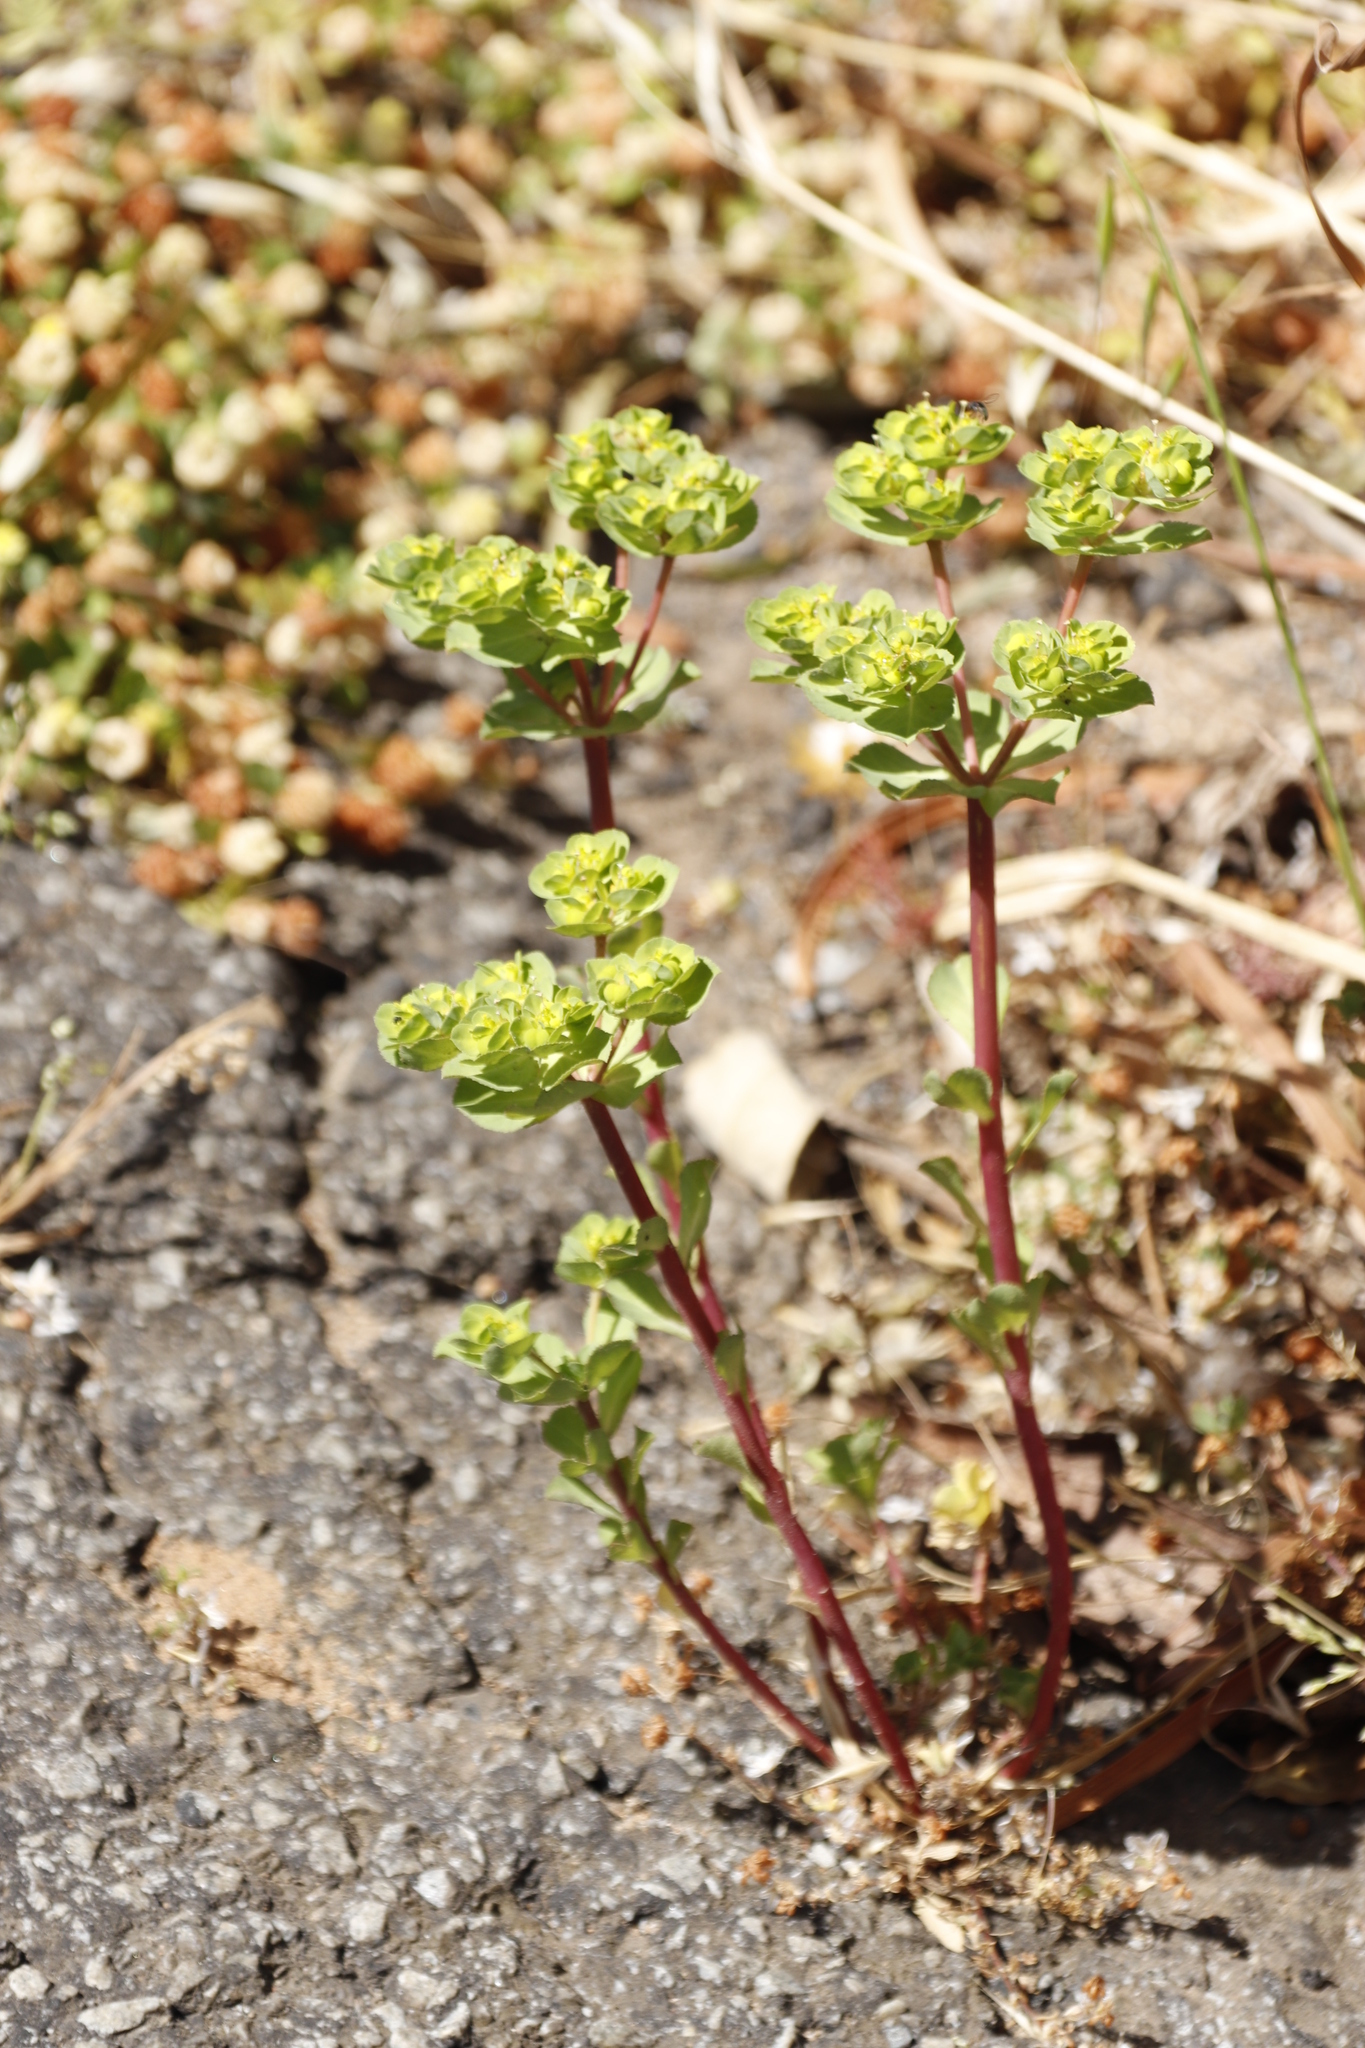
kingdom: Plantae
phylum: Tracheophyta
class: Magnoliopsida
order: Malpighiales
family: Euphorbiaceae
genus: Euphorbia
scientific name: Euphorbia helioscopia
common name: Sun spurge
